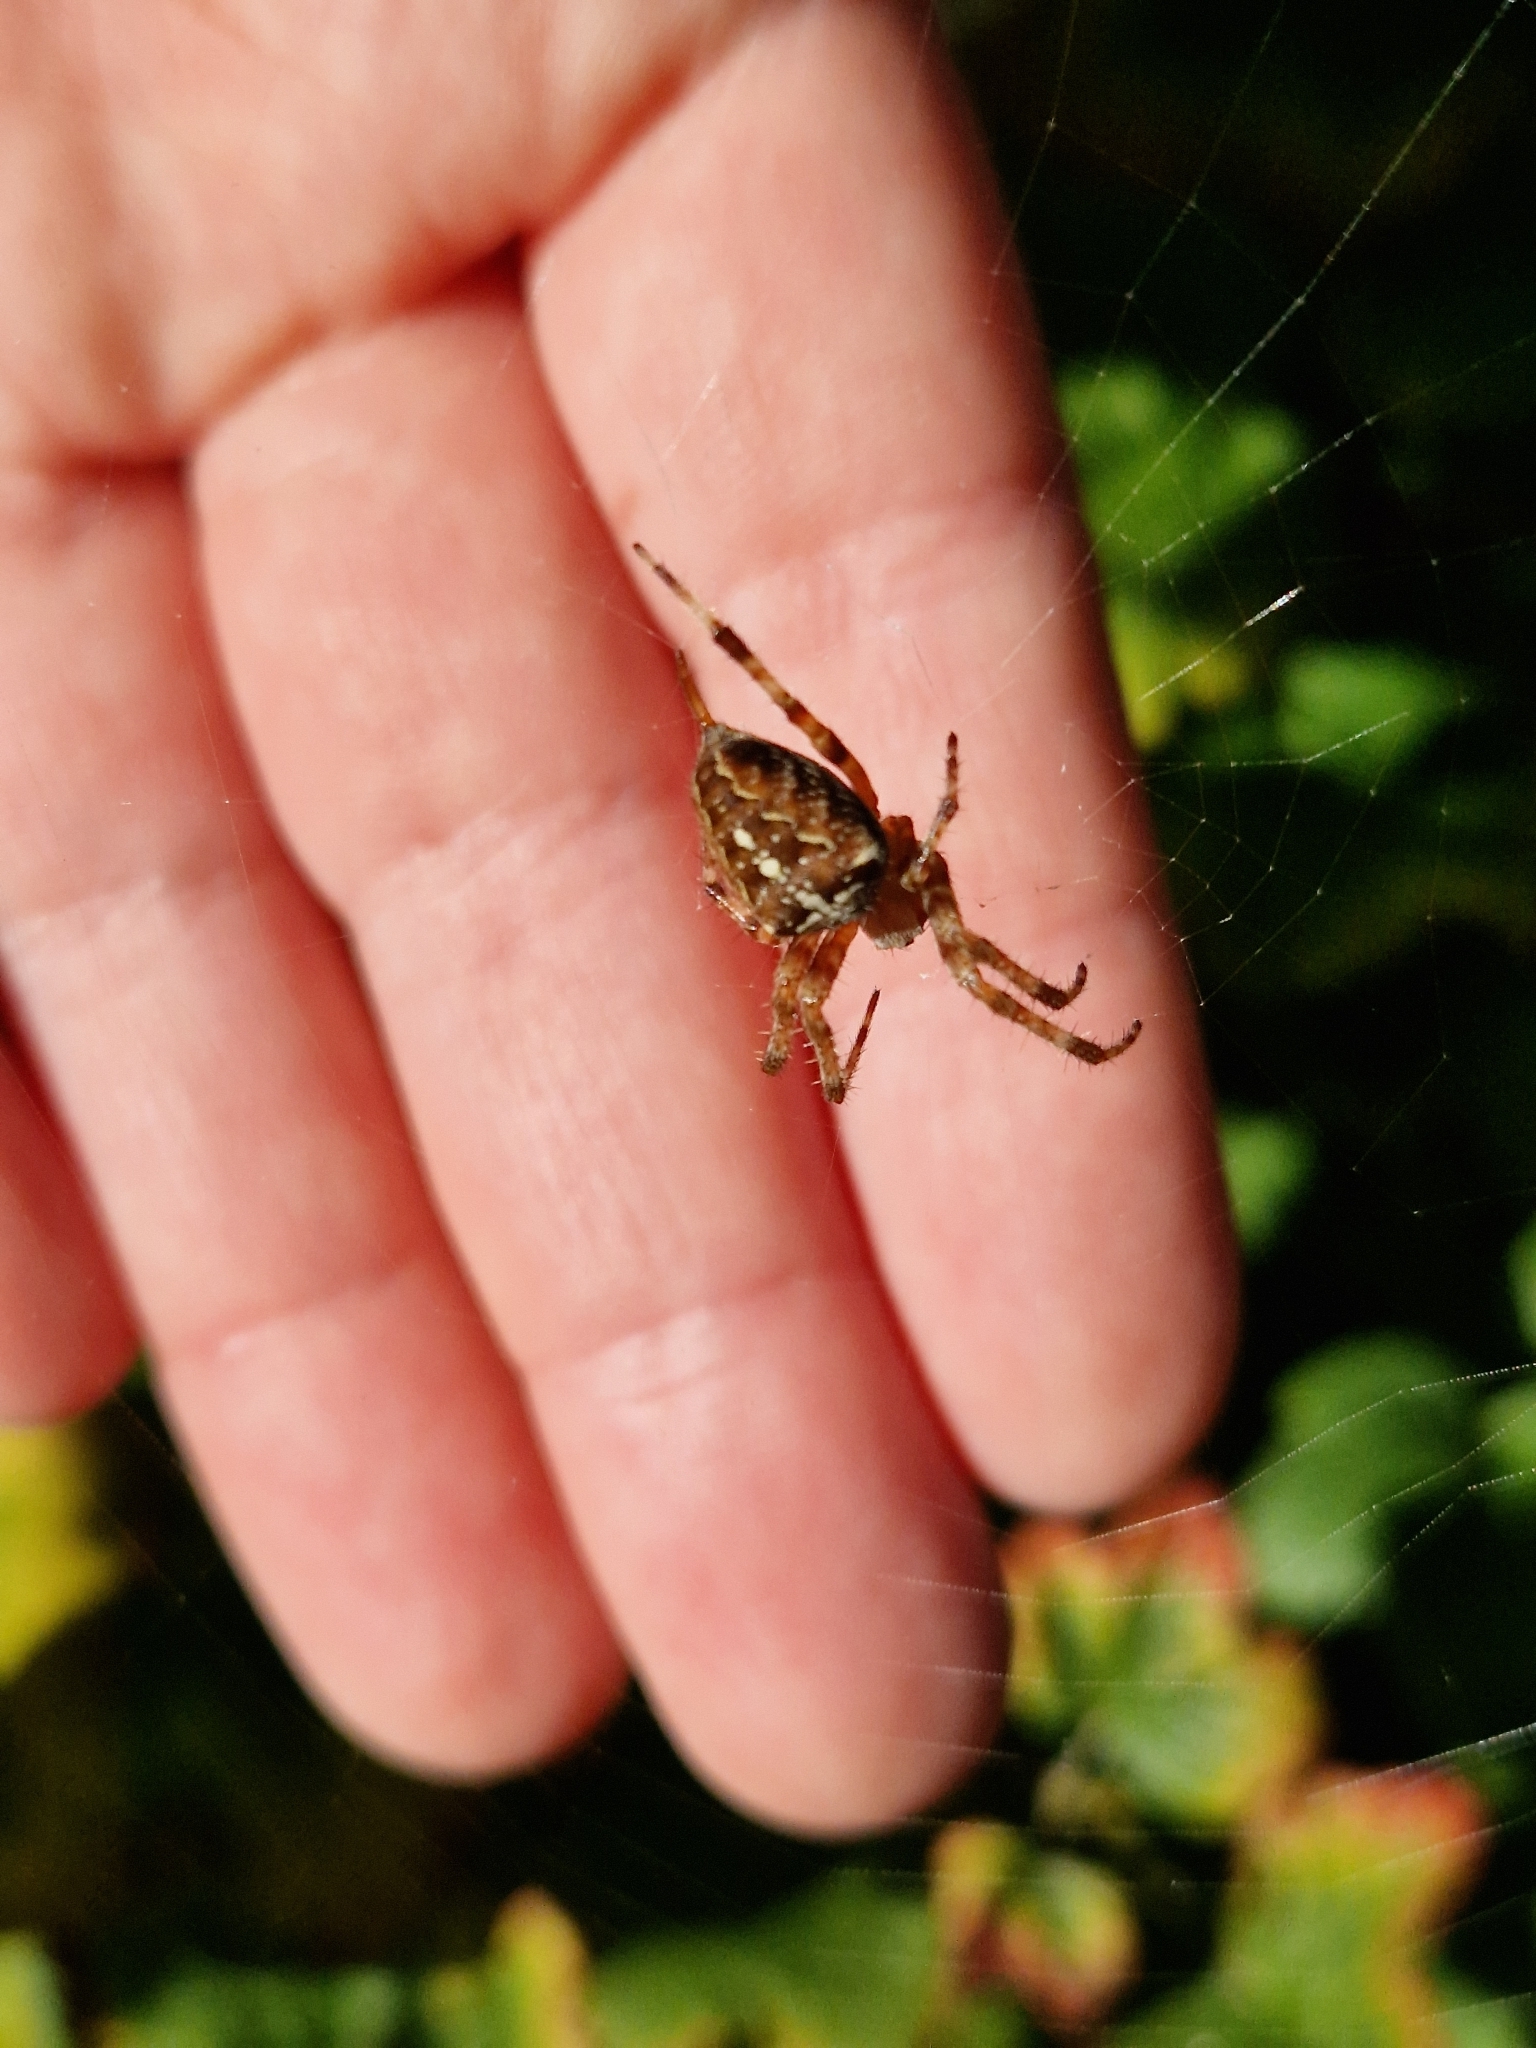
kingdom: Animalia
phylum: Arthropoda
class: Arachnida
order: Araneae
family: Araneidae
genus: Araneus
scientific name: Araneus diadematus
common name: Cross orbweaver
